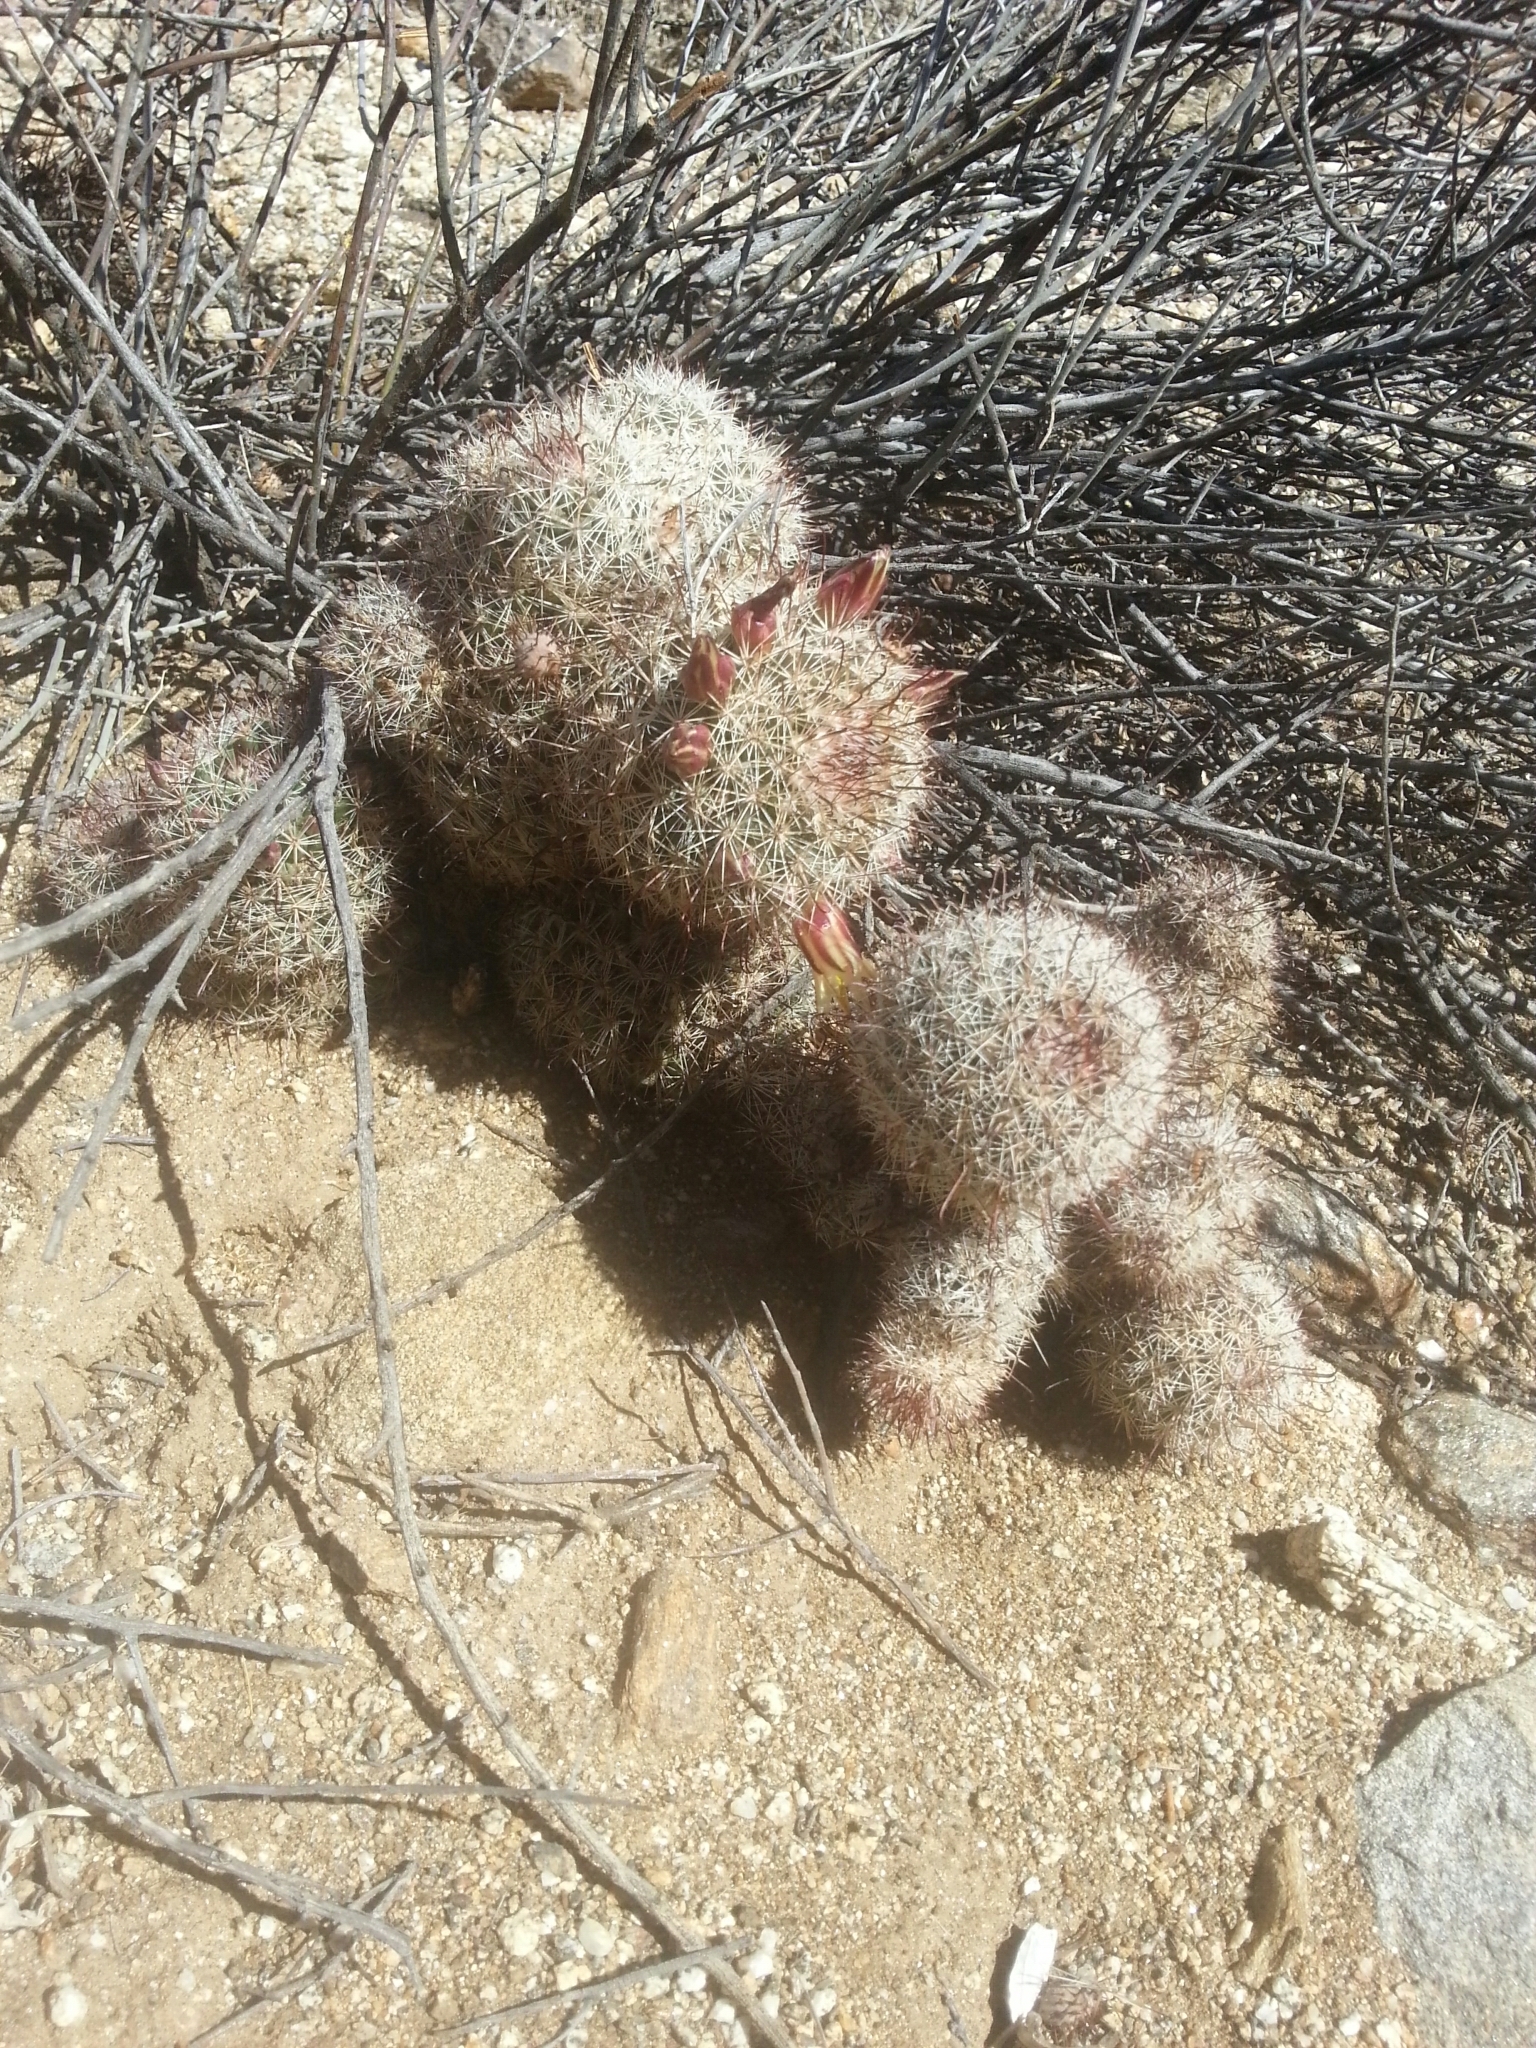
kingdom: Plantae
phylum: Tracheophyta
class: Magnoliopsida
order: Caryophyllales
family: Cactaceae
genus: Cochemiea
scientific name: Cochemiea dioica
